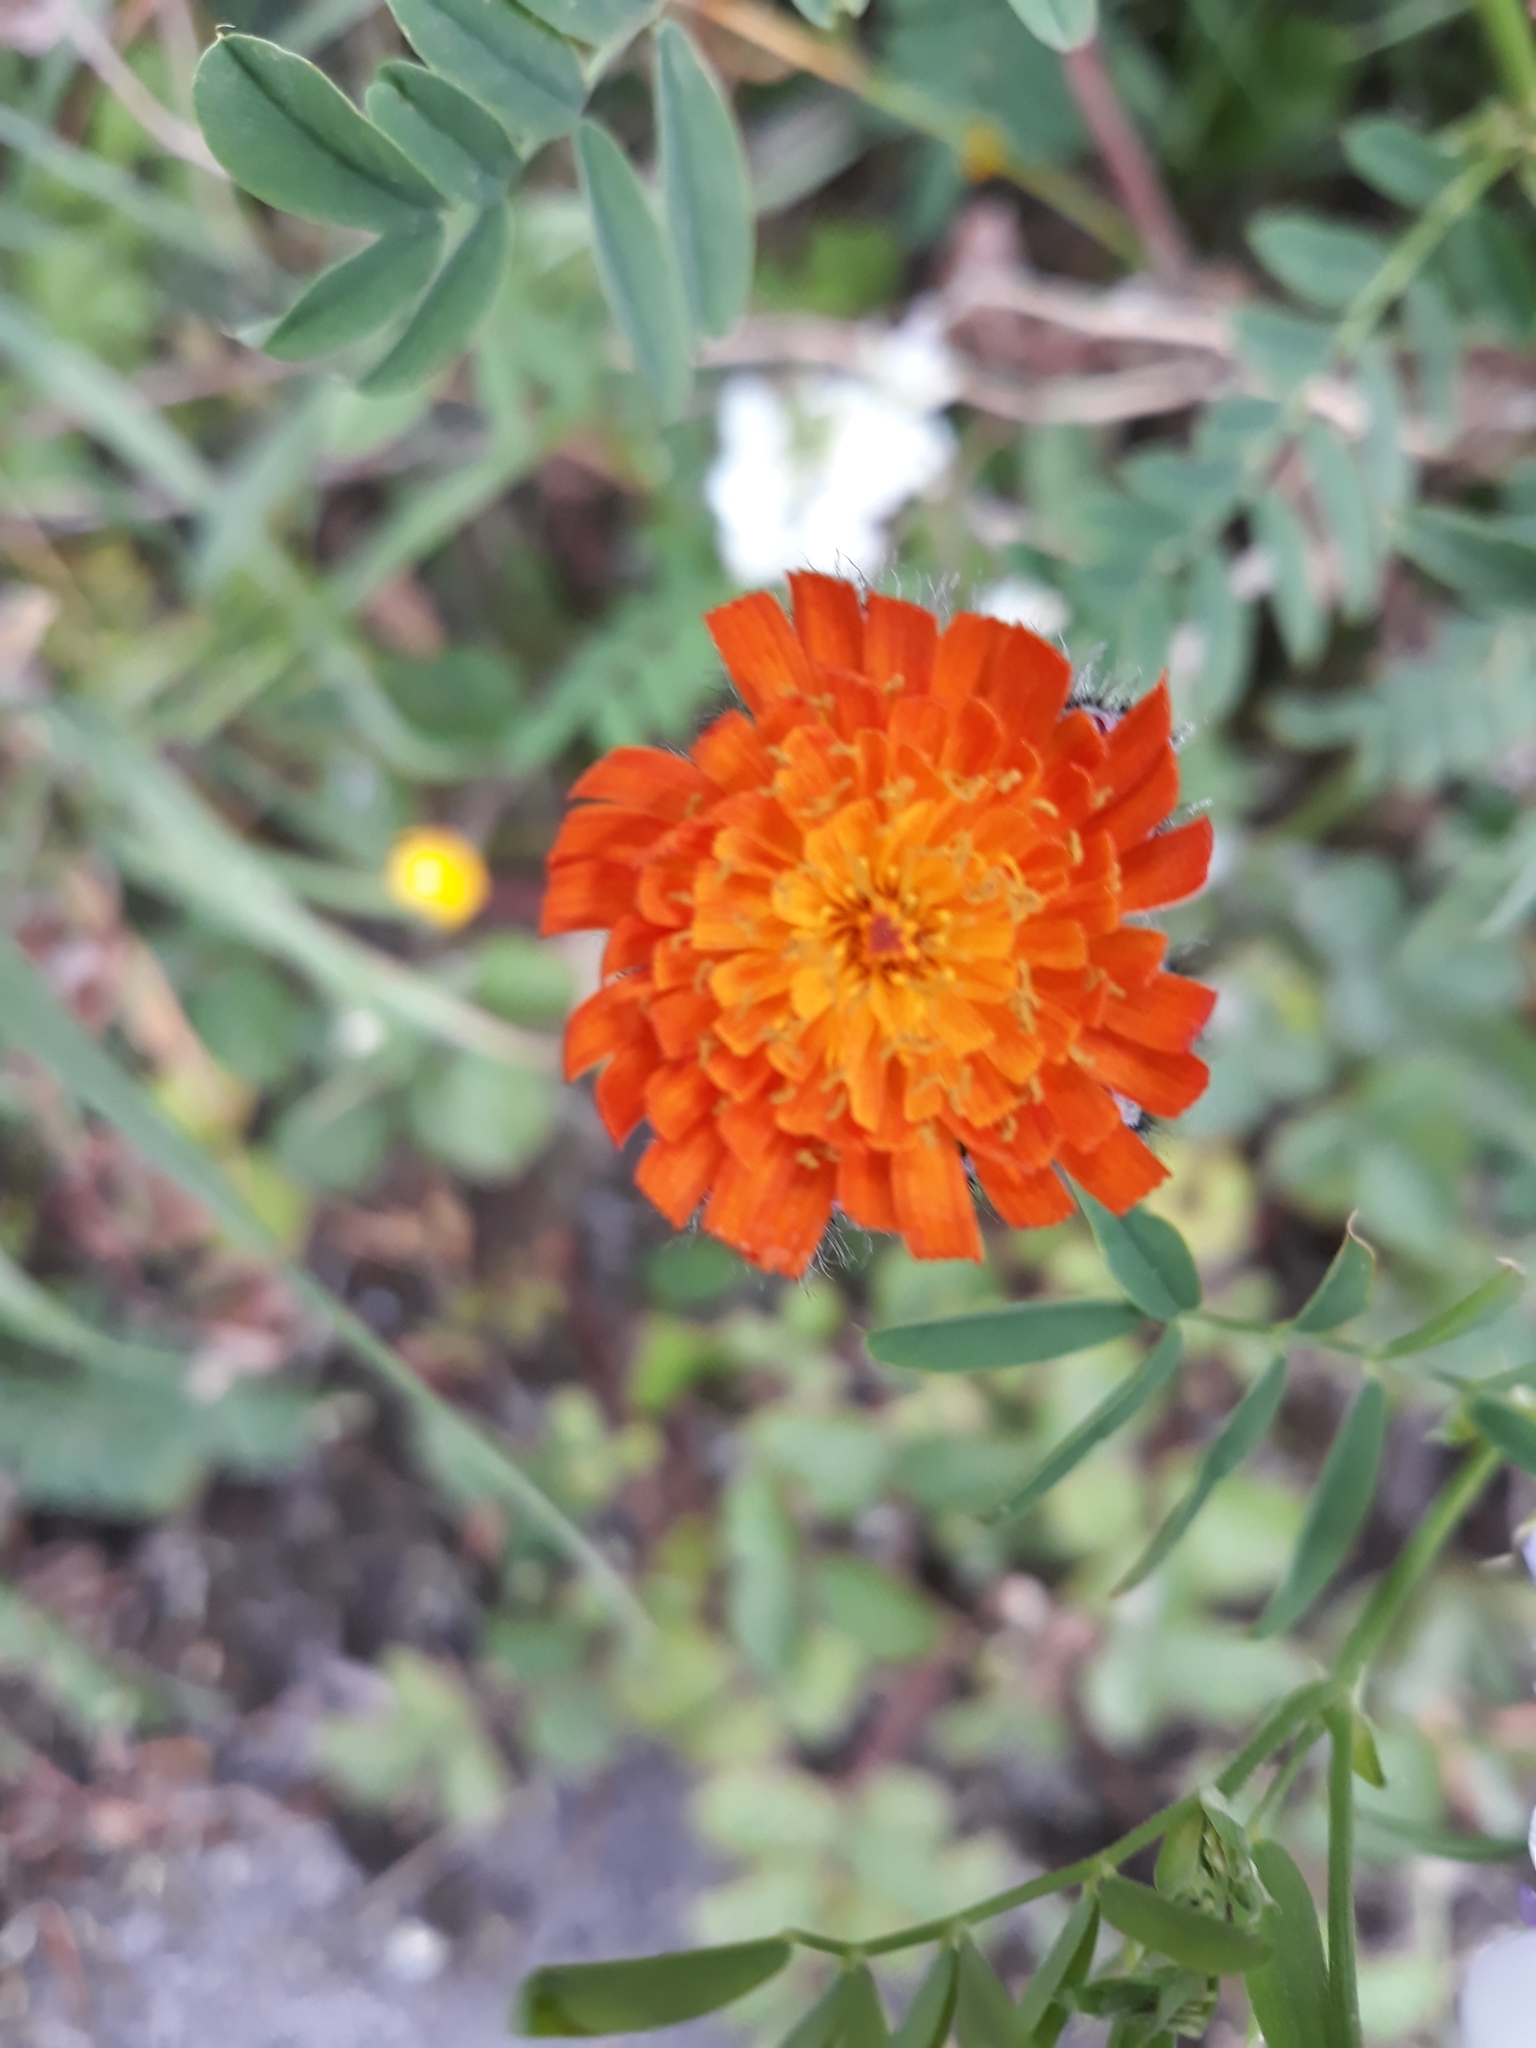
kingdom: Plantae
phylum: Tracheophyta
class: Magnoliopsida
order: Asterales
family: Asteraceae
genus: Pilosella
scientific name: Pilosella aurantiaca
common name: Fox-and-cubs
